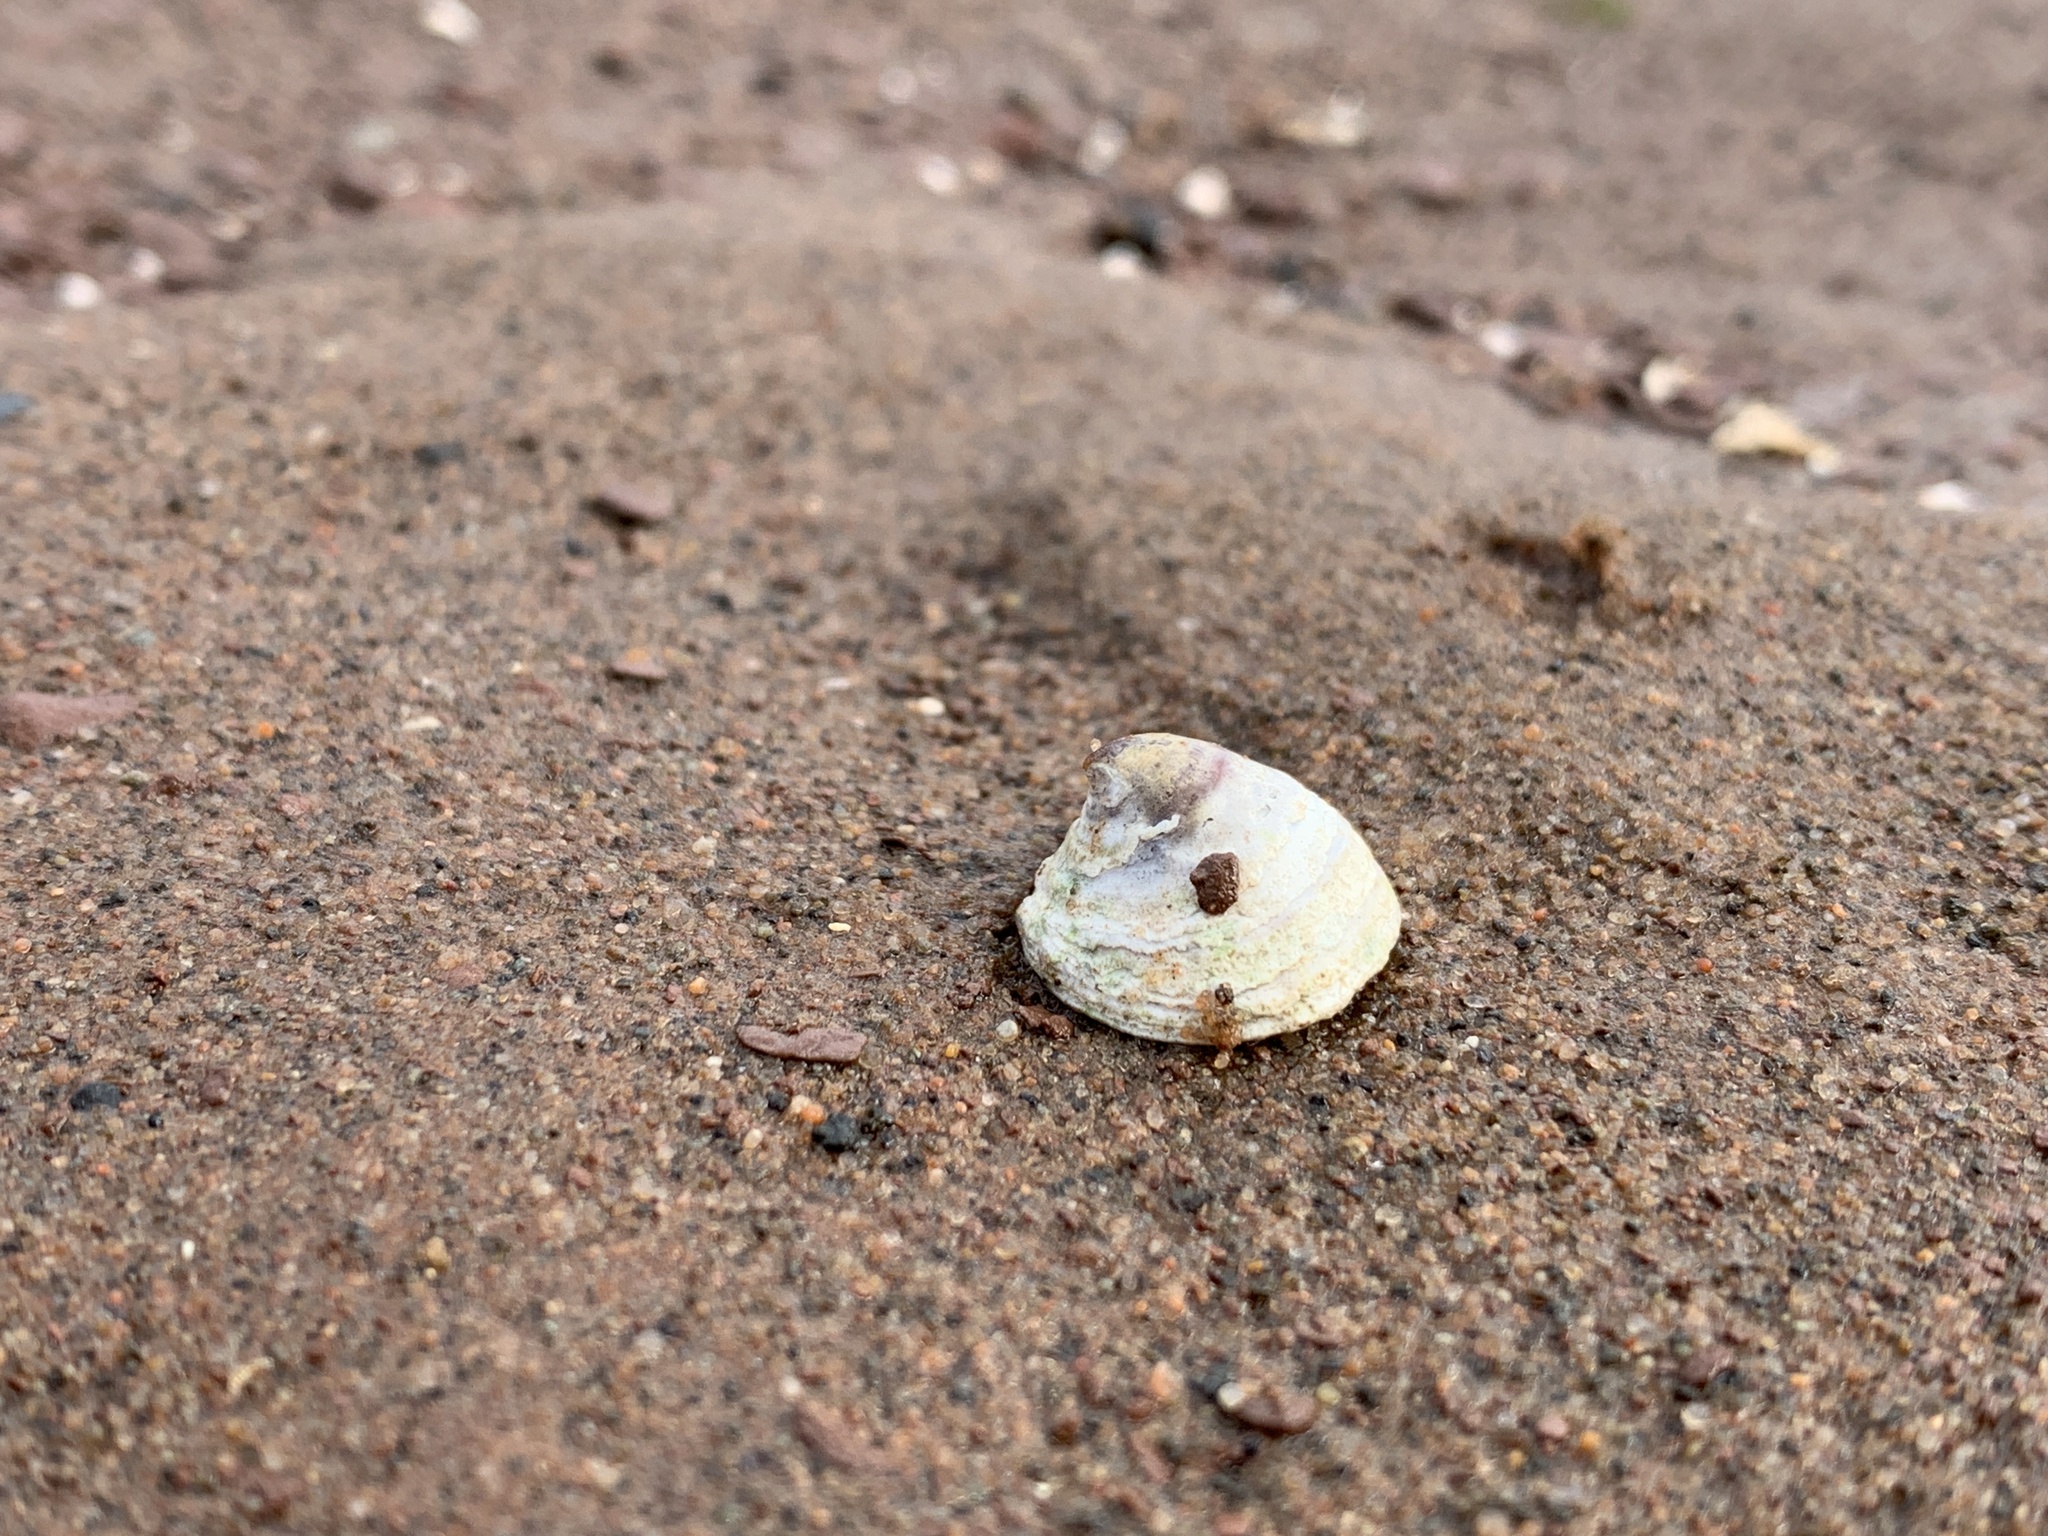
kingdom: Animalia
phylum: Mollusca
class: Gastropoda
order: Littorinimorpha
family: Calyptraeidae
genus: Crucibulum
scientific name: Crucibulum striatum
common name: Striate cup-and -saucer
